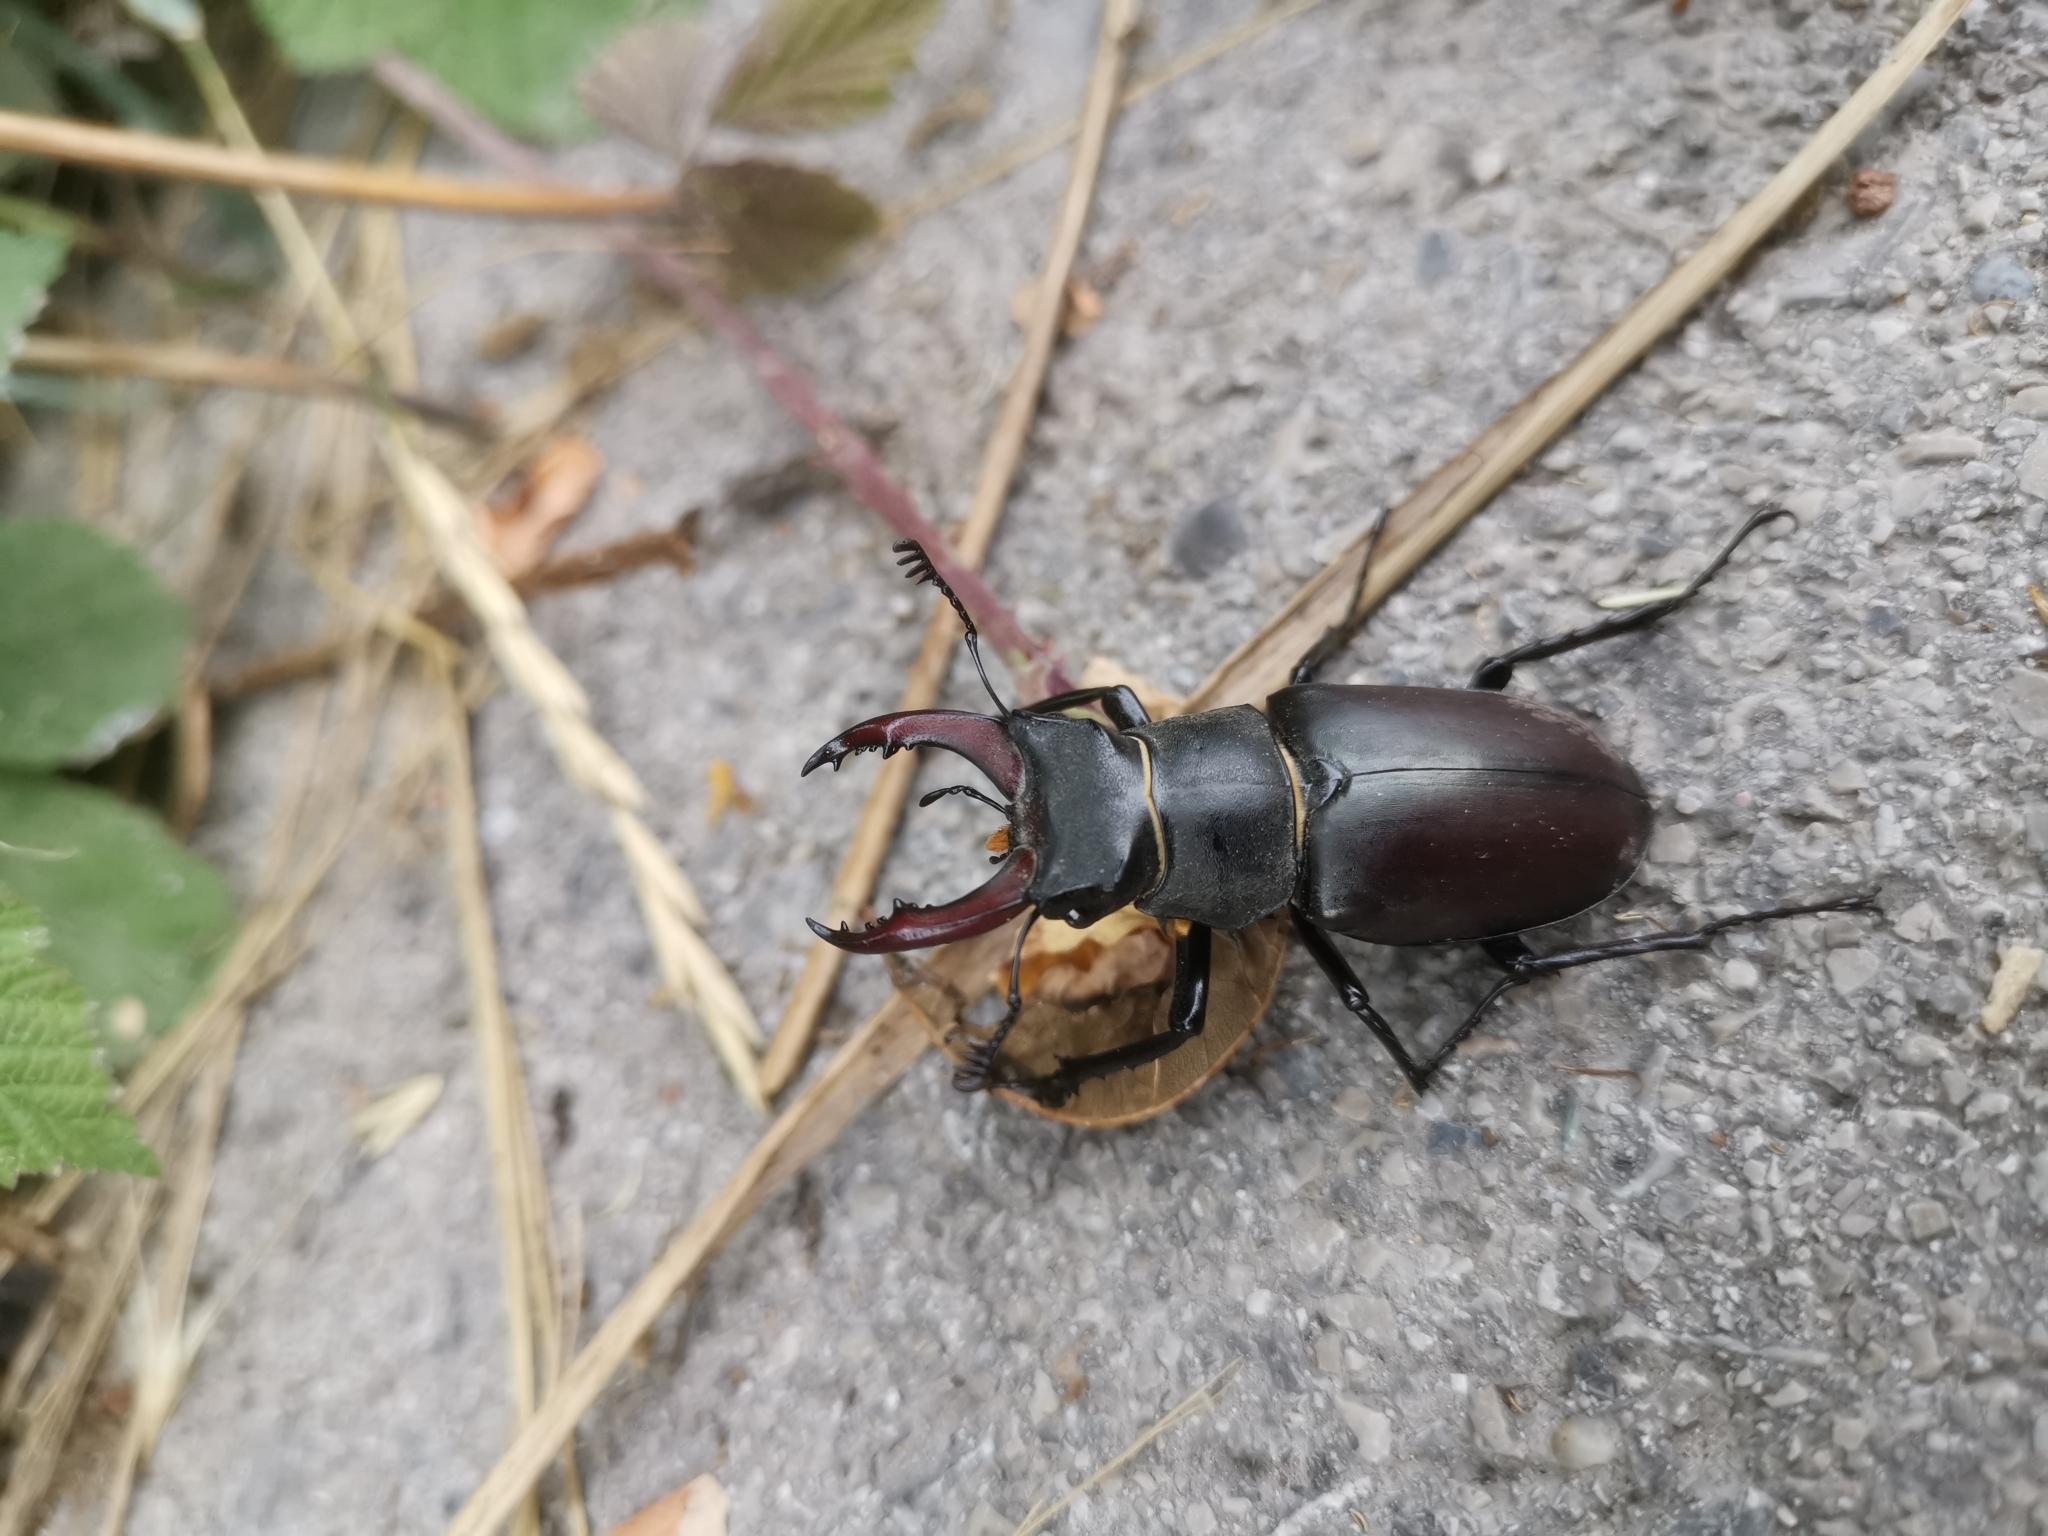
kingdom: Animalia
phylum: Arthropoda
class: Insecta
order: Coleoptera
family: Lucanidae
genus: Lucanus
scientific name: Lucanus cervus
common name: Stag beetle
